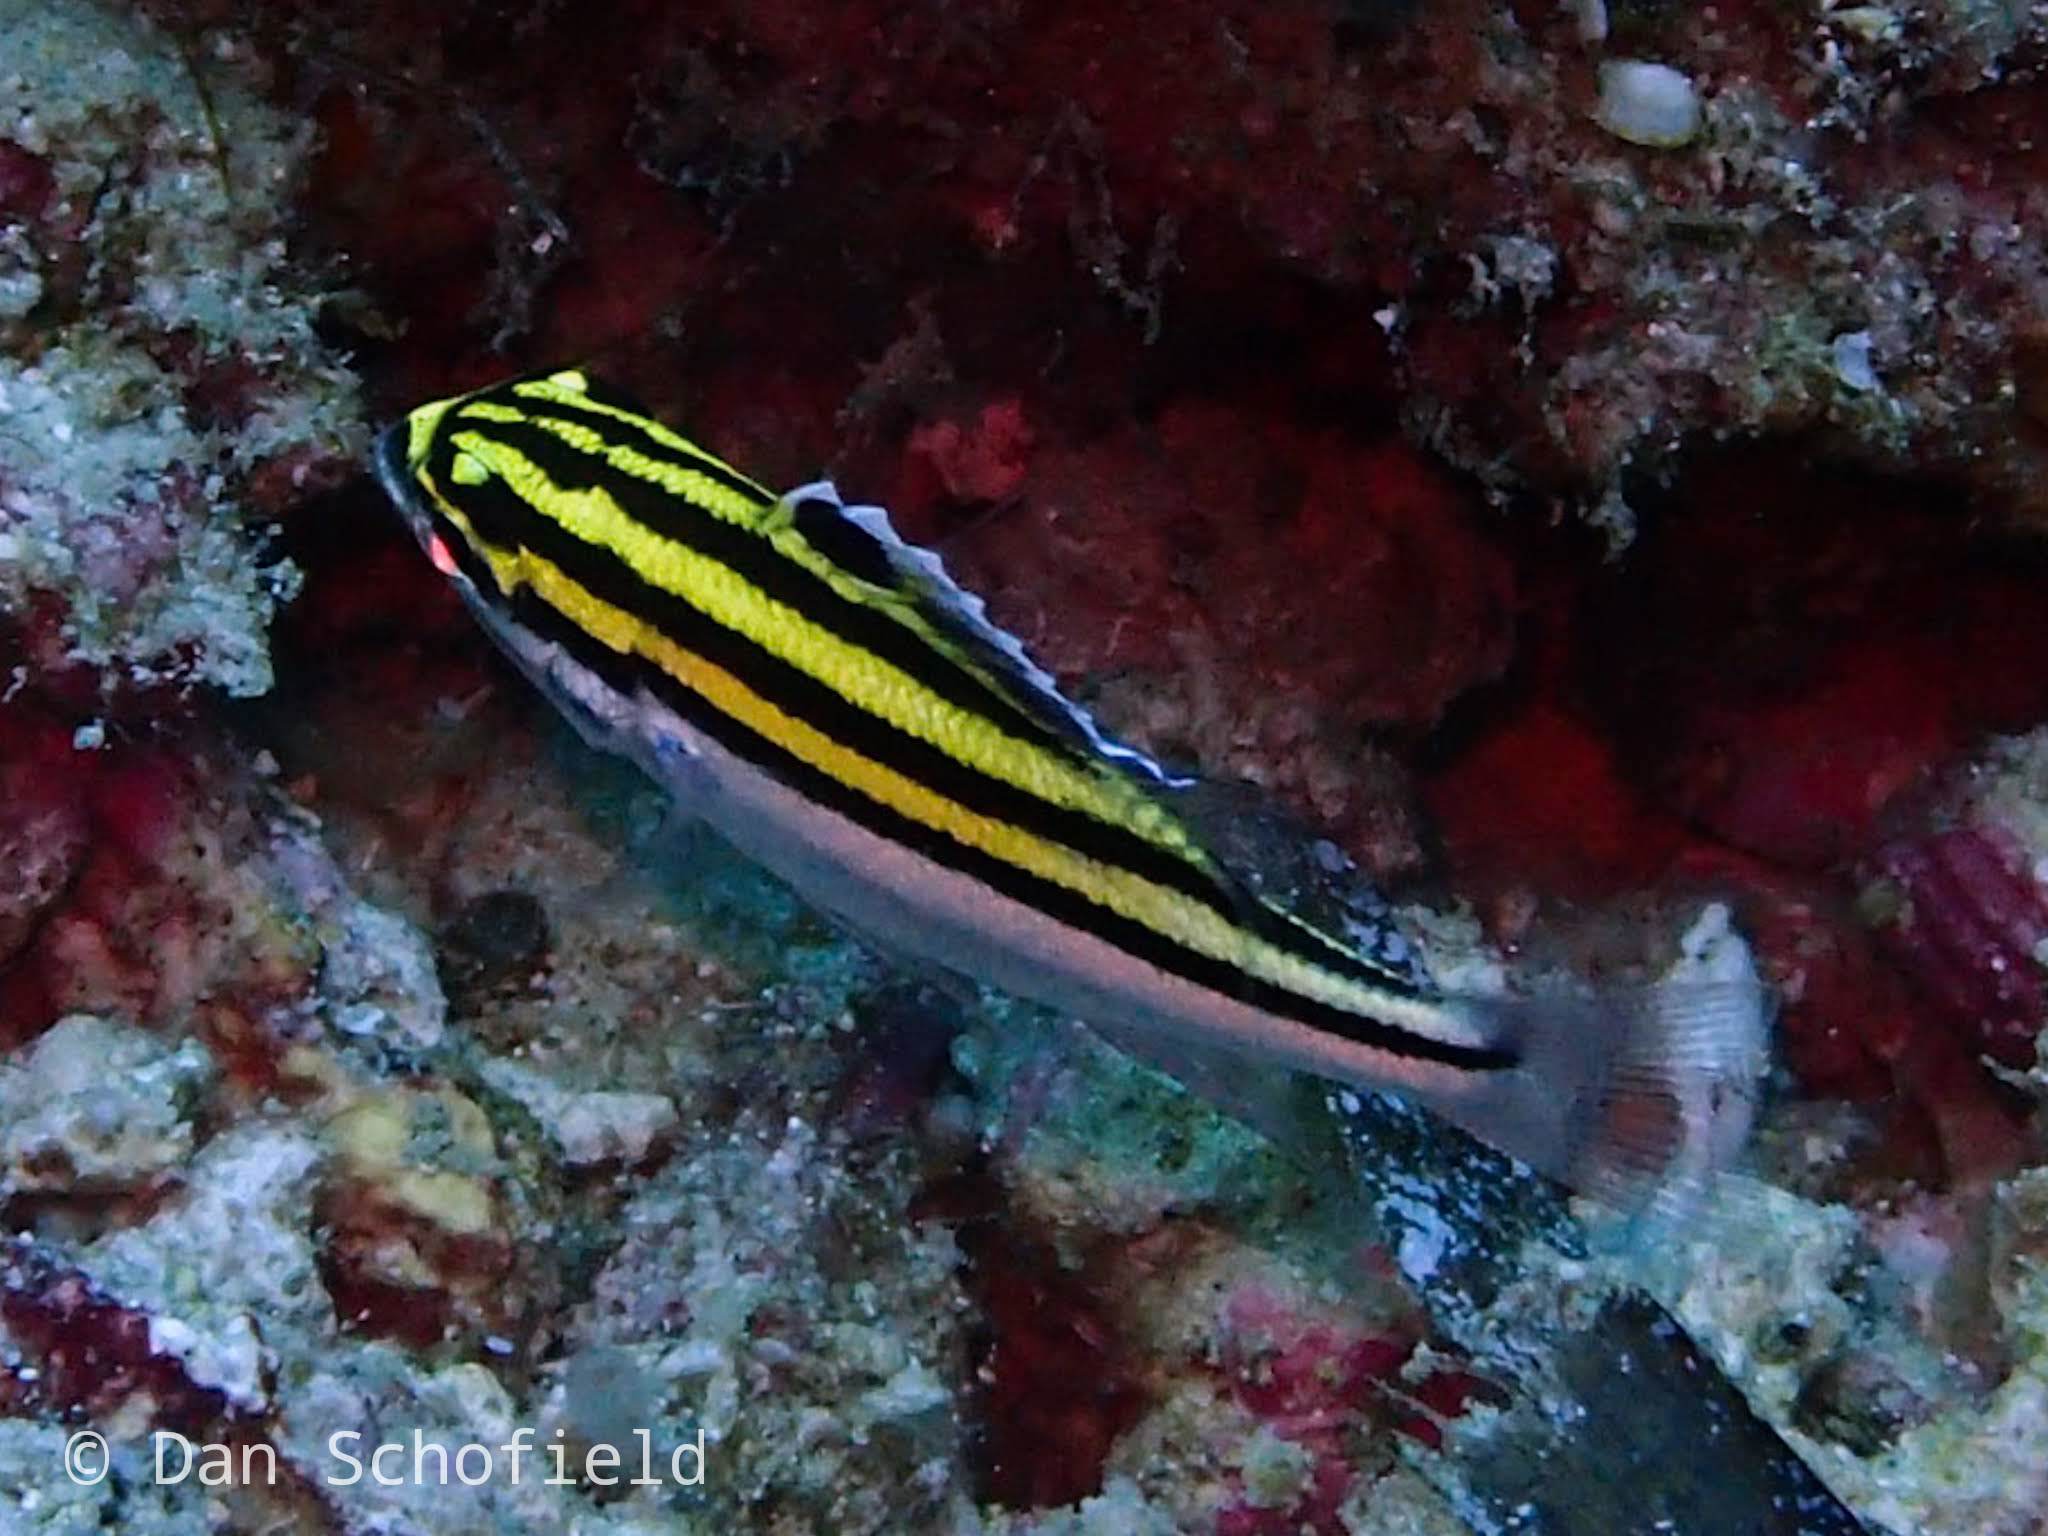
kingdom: Animalia
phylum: Chordata
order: Perciformes
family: Nemipteridae
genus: Scolopsis
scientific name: Scolopsis bilineata
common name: Two-lined monocle bream
